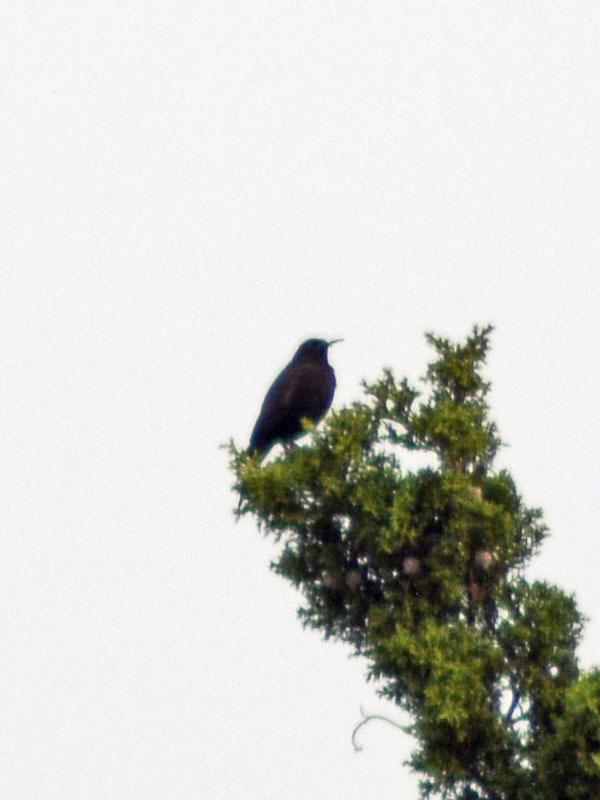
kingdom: Animalia
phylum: Chordata
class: Aves
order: Passeriformes
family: Icteridae
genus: Molothrus
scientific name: Molothrus aeneus
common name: Bronzed cowbird
